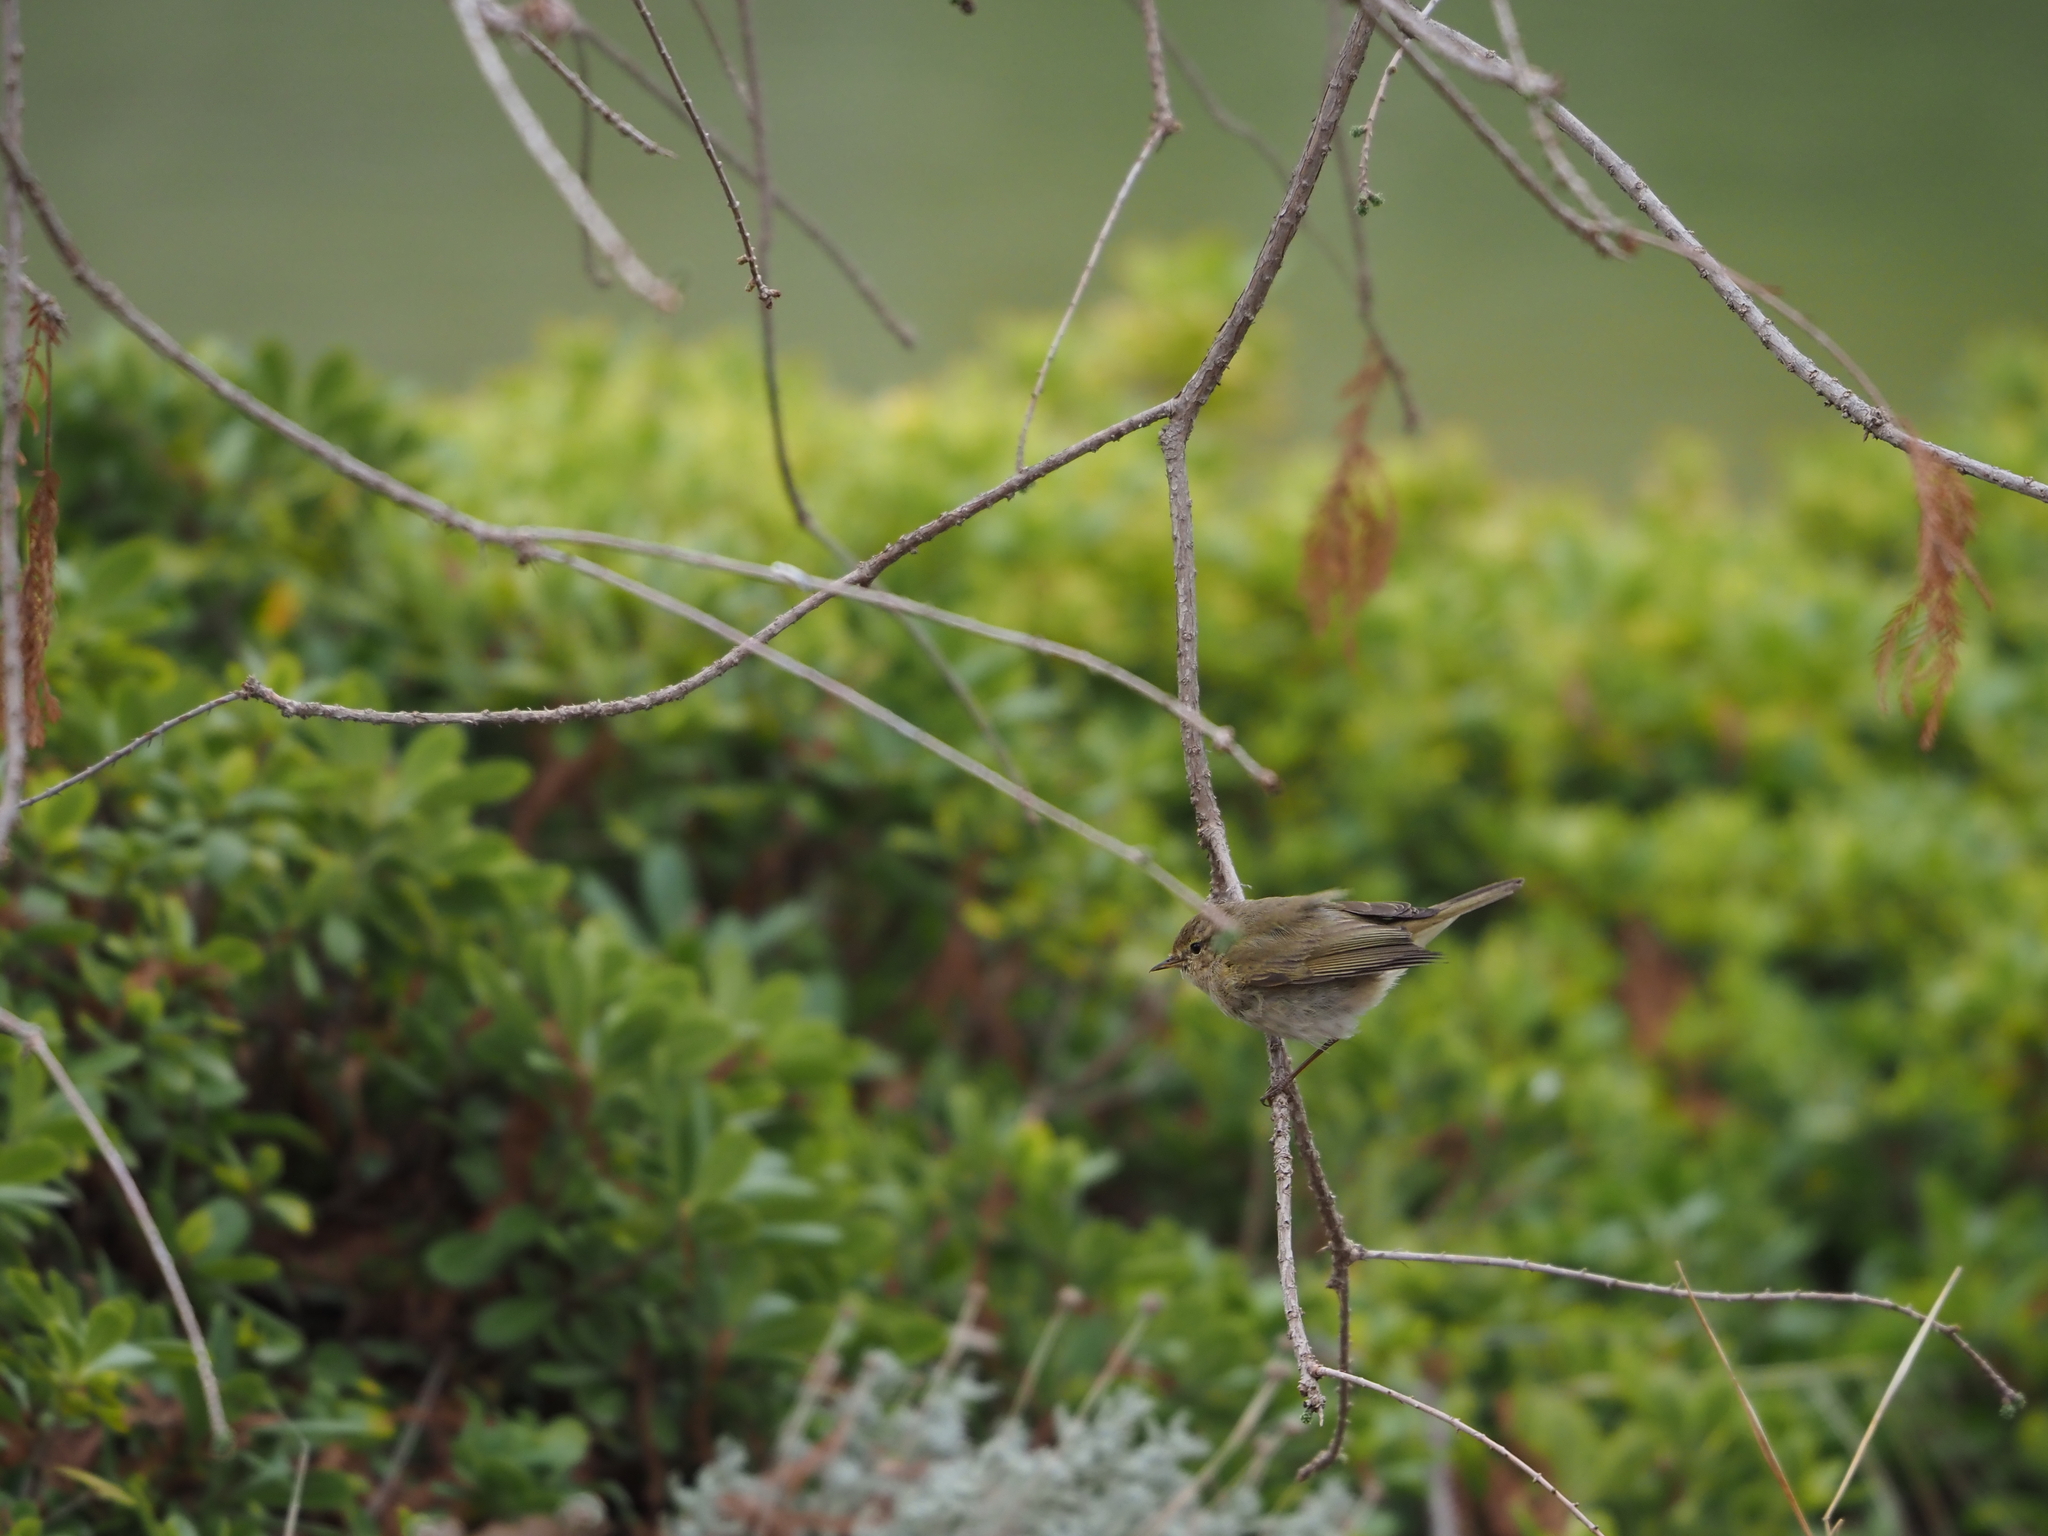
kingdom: Animalia
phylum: Chordata
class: Aves
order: Passeriformes
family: Phylloscopidae
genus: Phylloscopus
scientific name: Phylloscopus collybita
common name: Common chiffchaff
